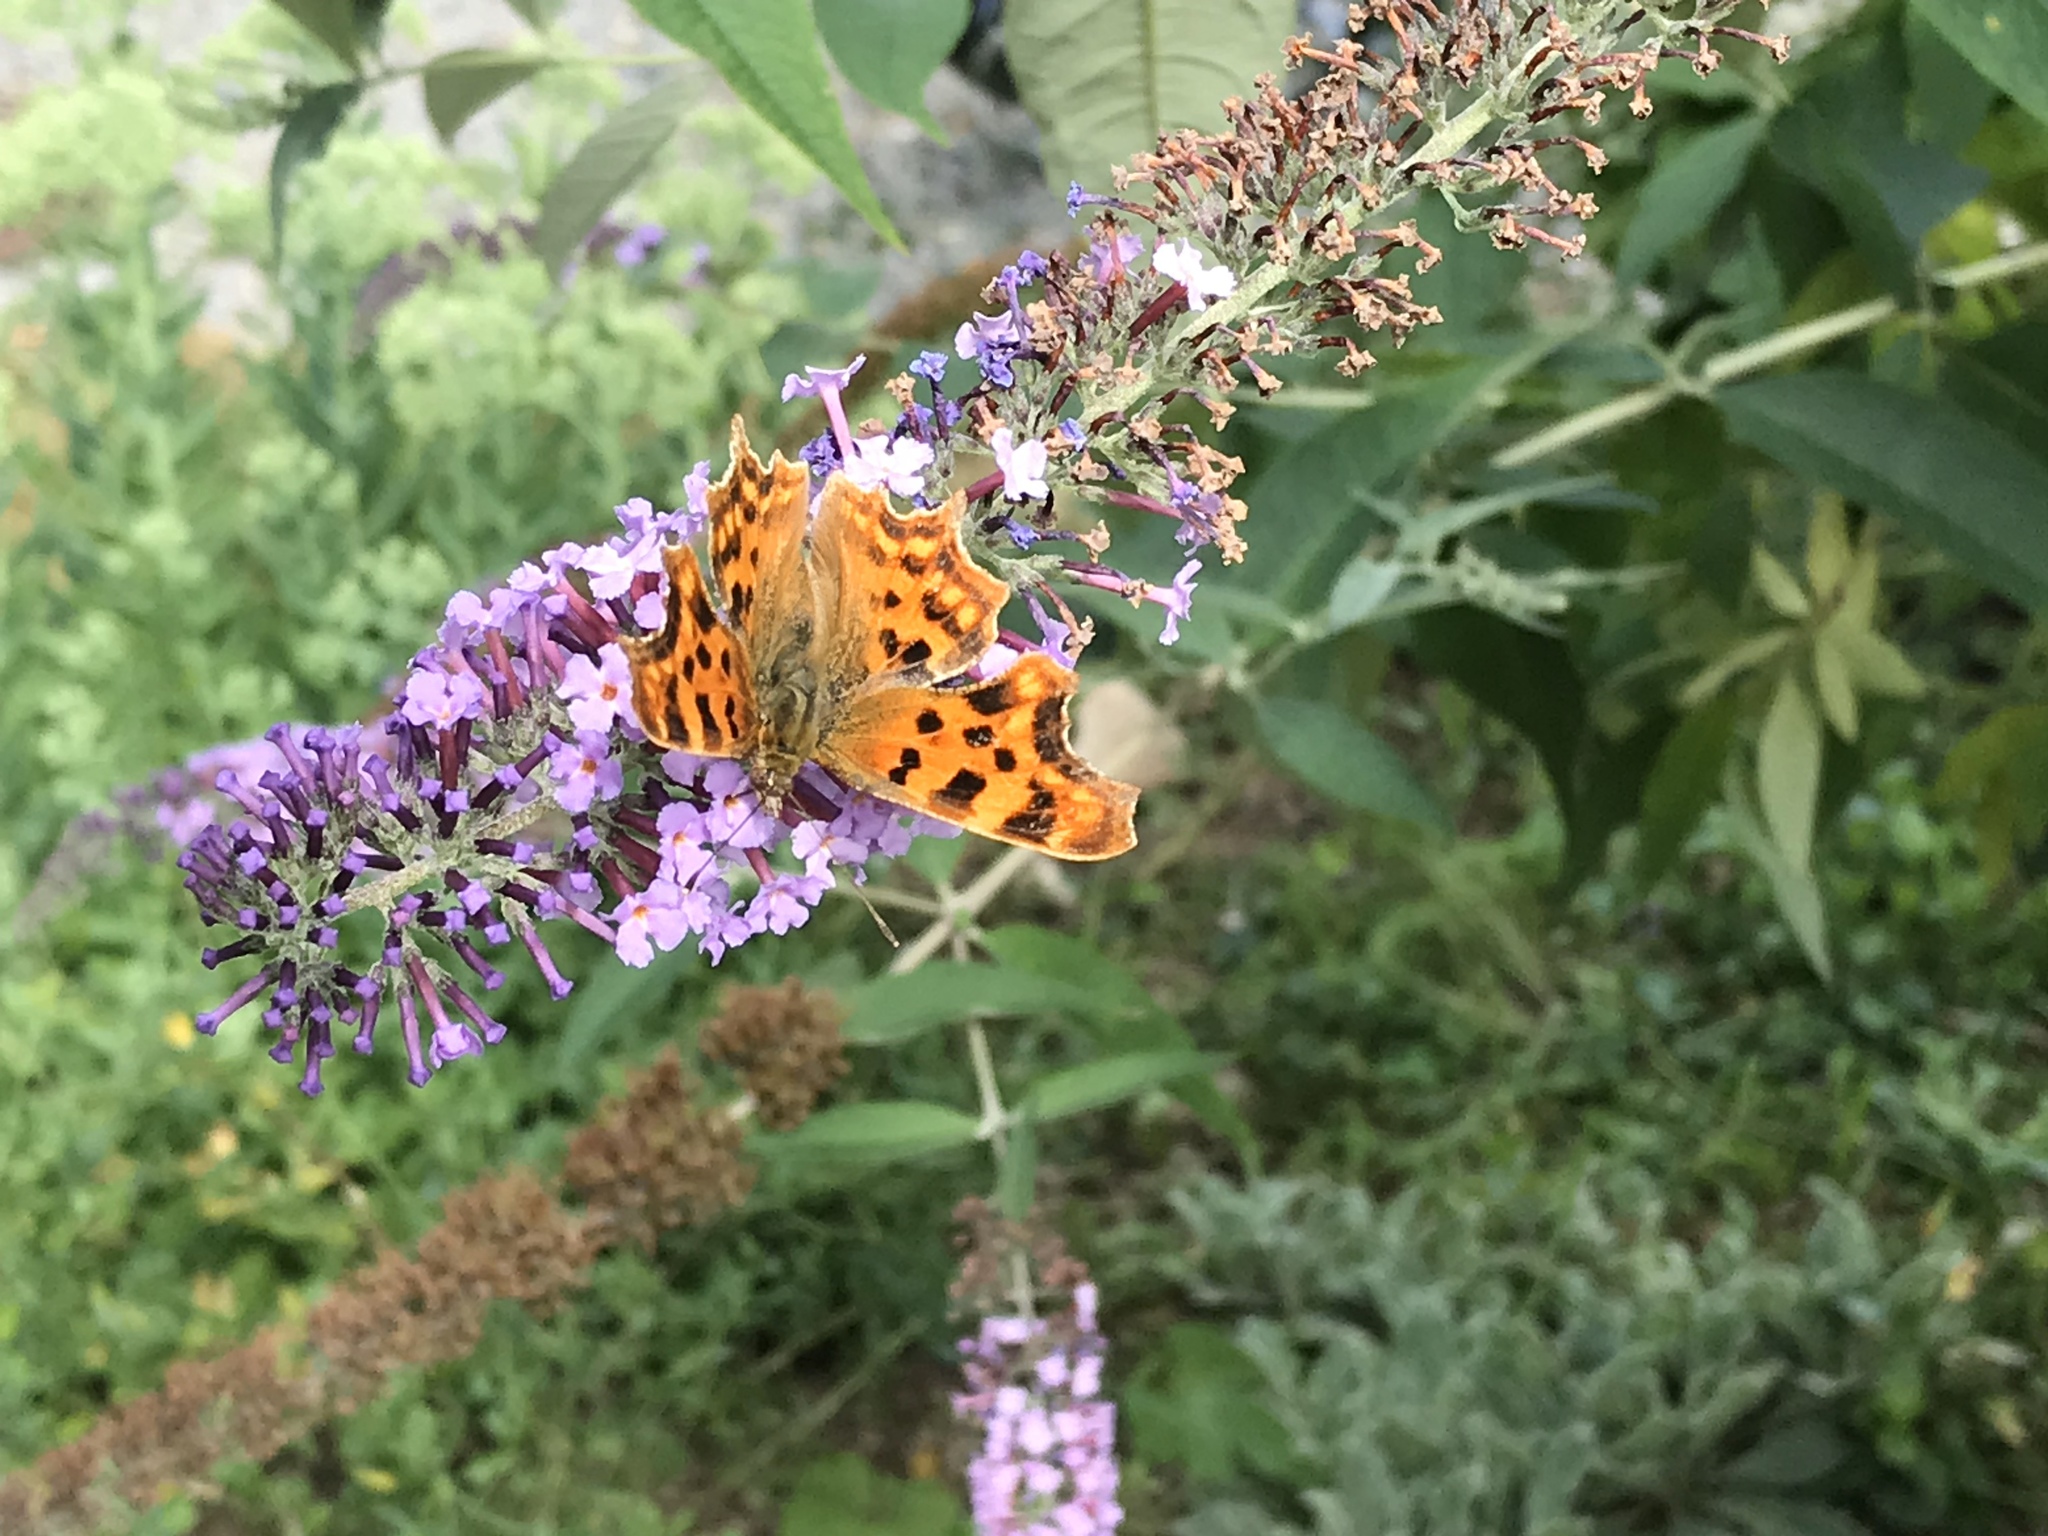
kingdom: Animalia
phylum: Arthropoda
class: Insecta
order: Lepidoptera
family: Nymphalidae
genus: Polygonia
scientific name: Polygonia c-album
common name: Comma
